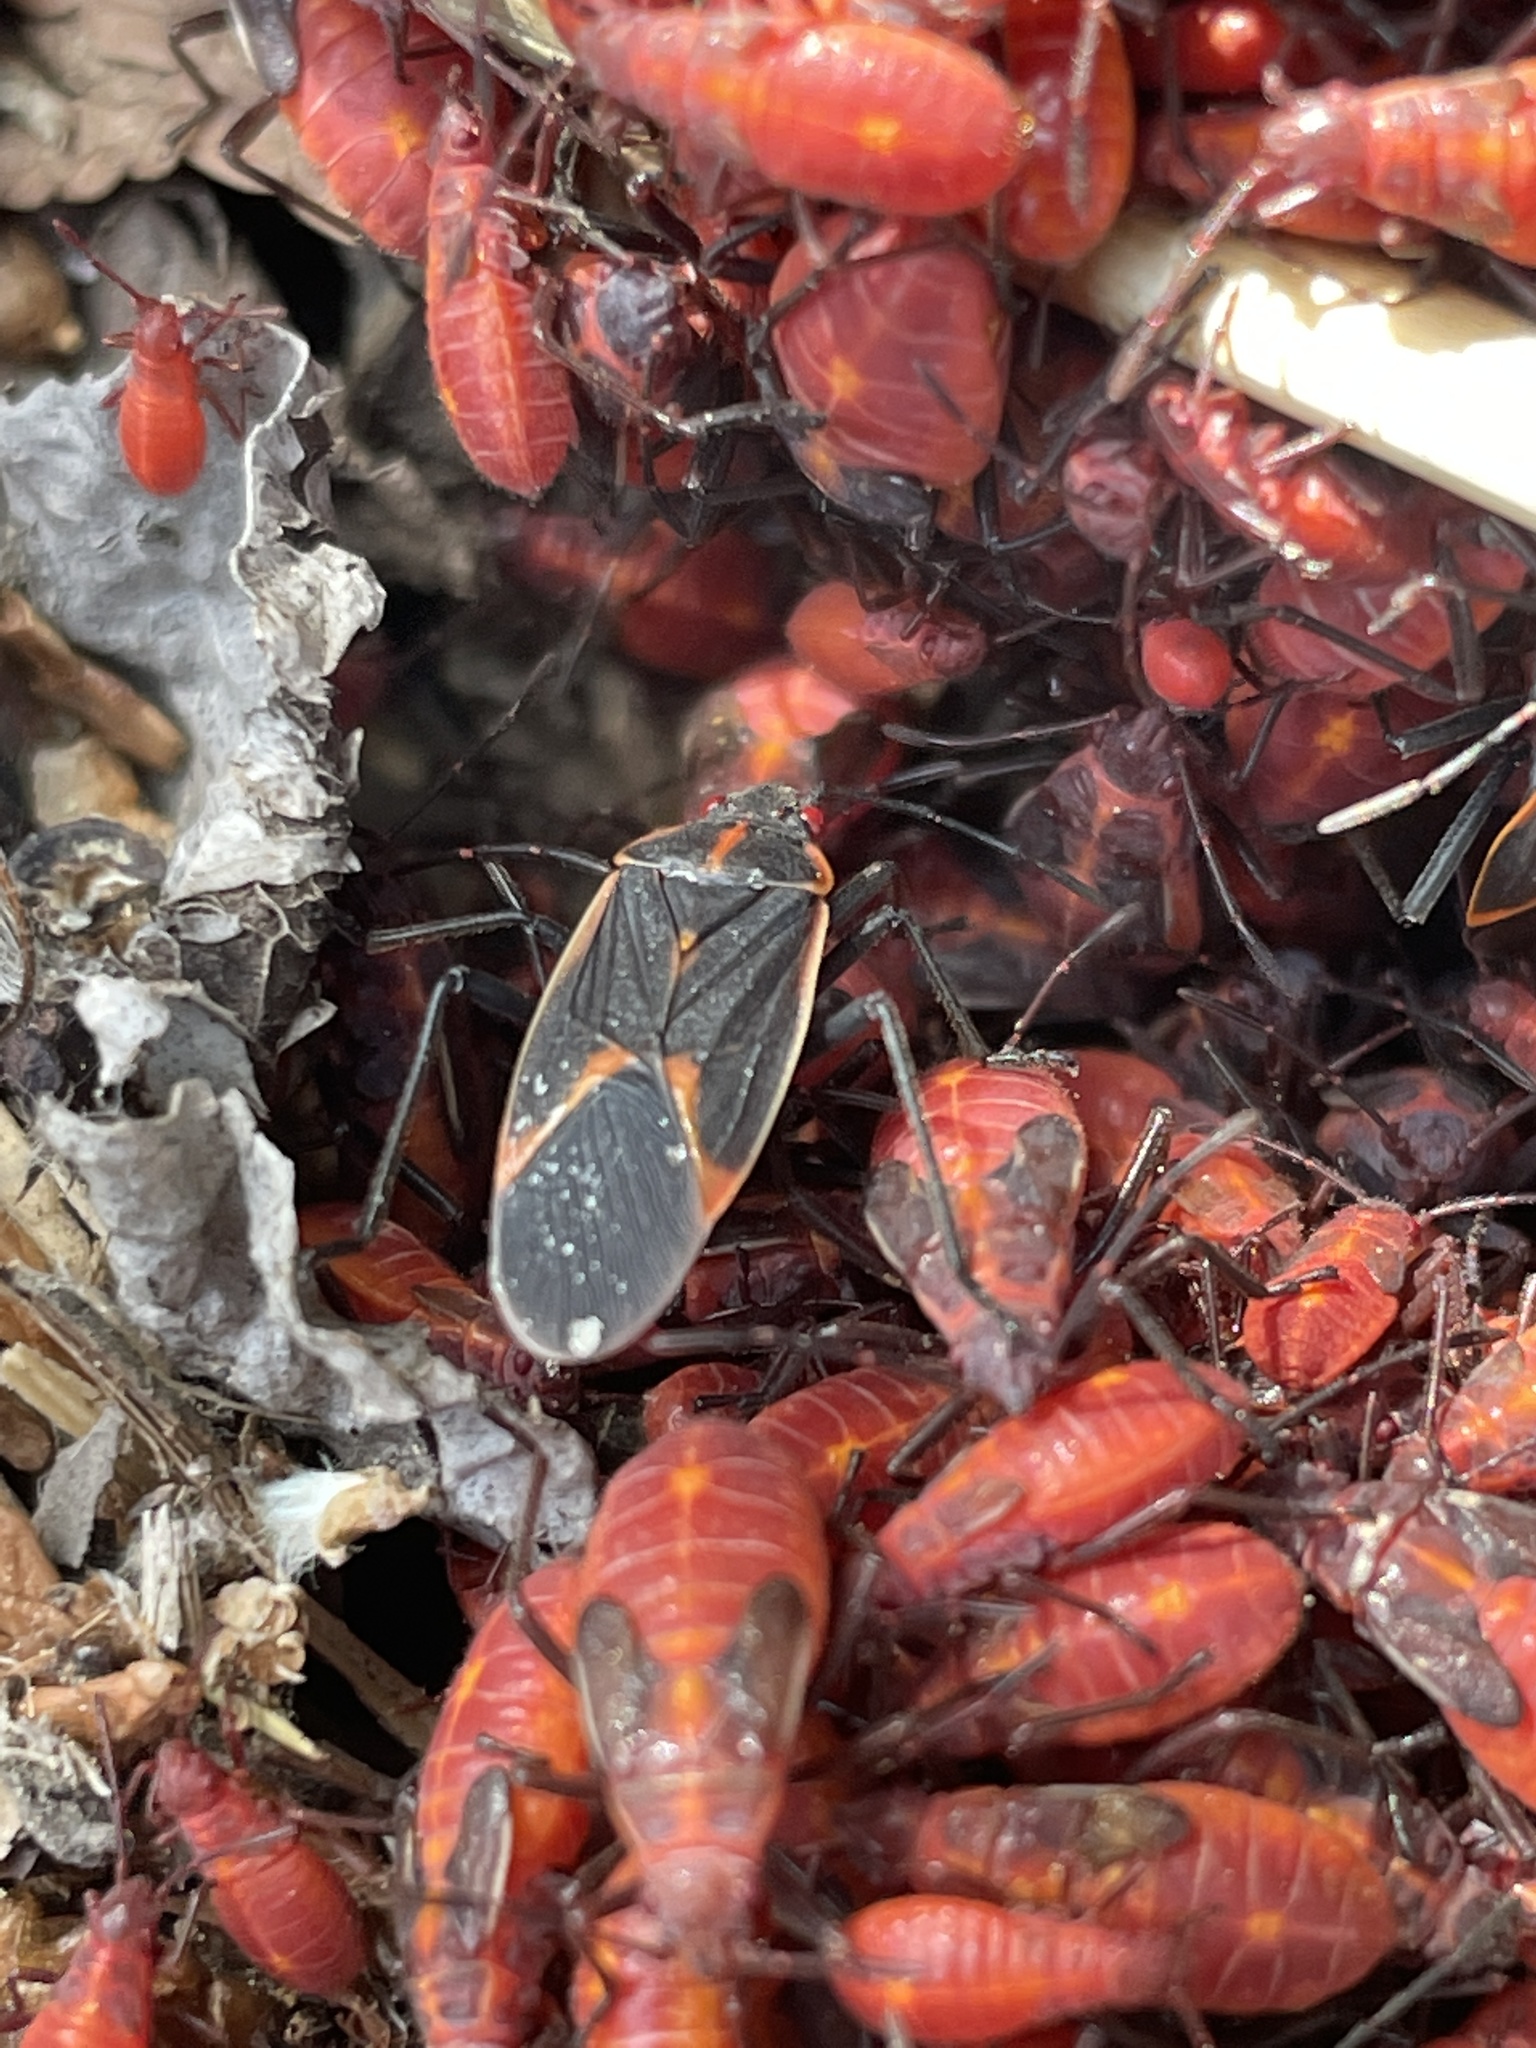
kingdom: Animalia
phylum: Arthropoda
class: Insecta
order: Hemiptera
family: Rhopalidae
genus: Boisea
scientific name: Boisea trivittata
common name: Boxelder bug
